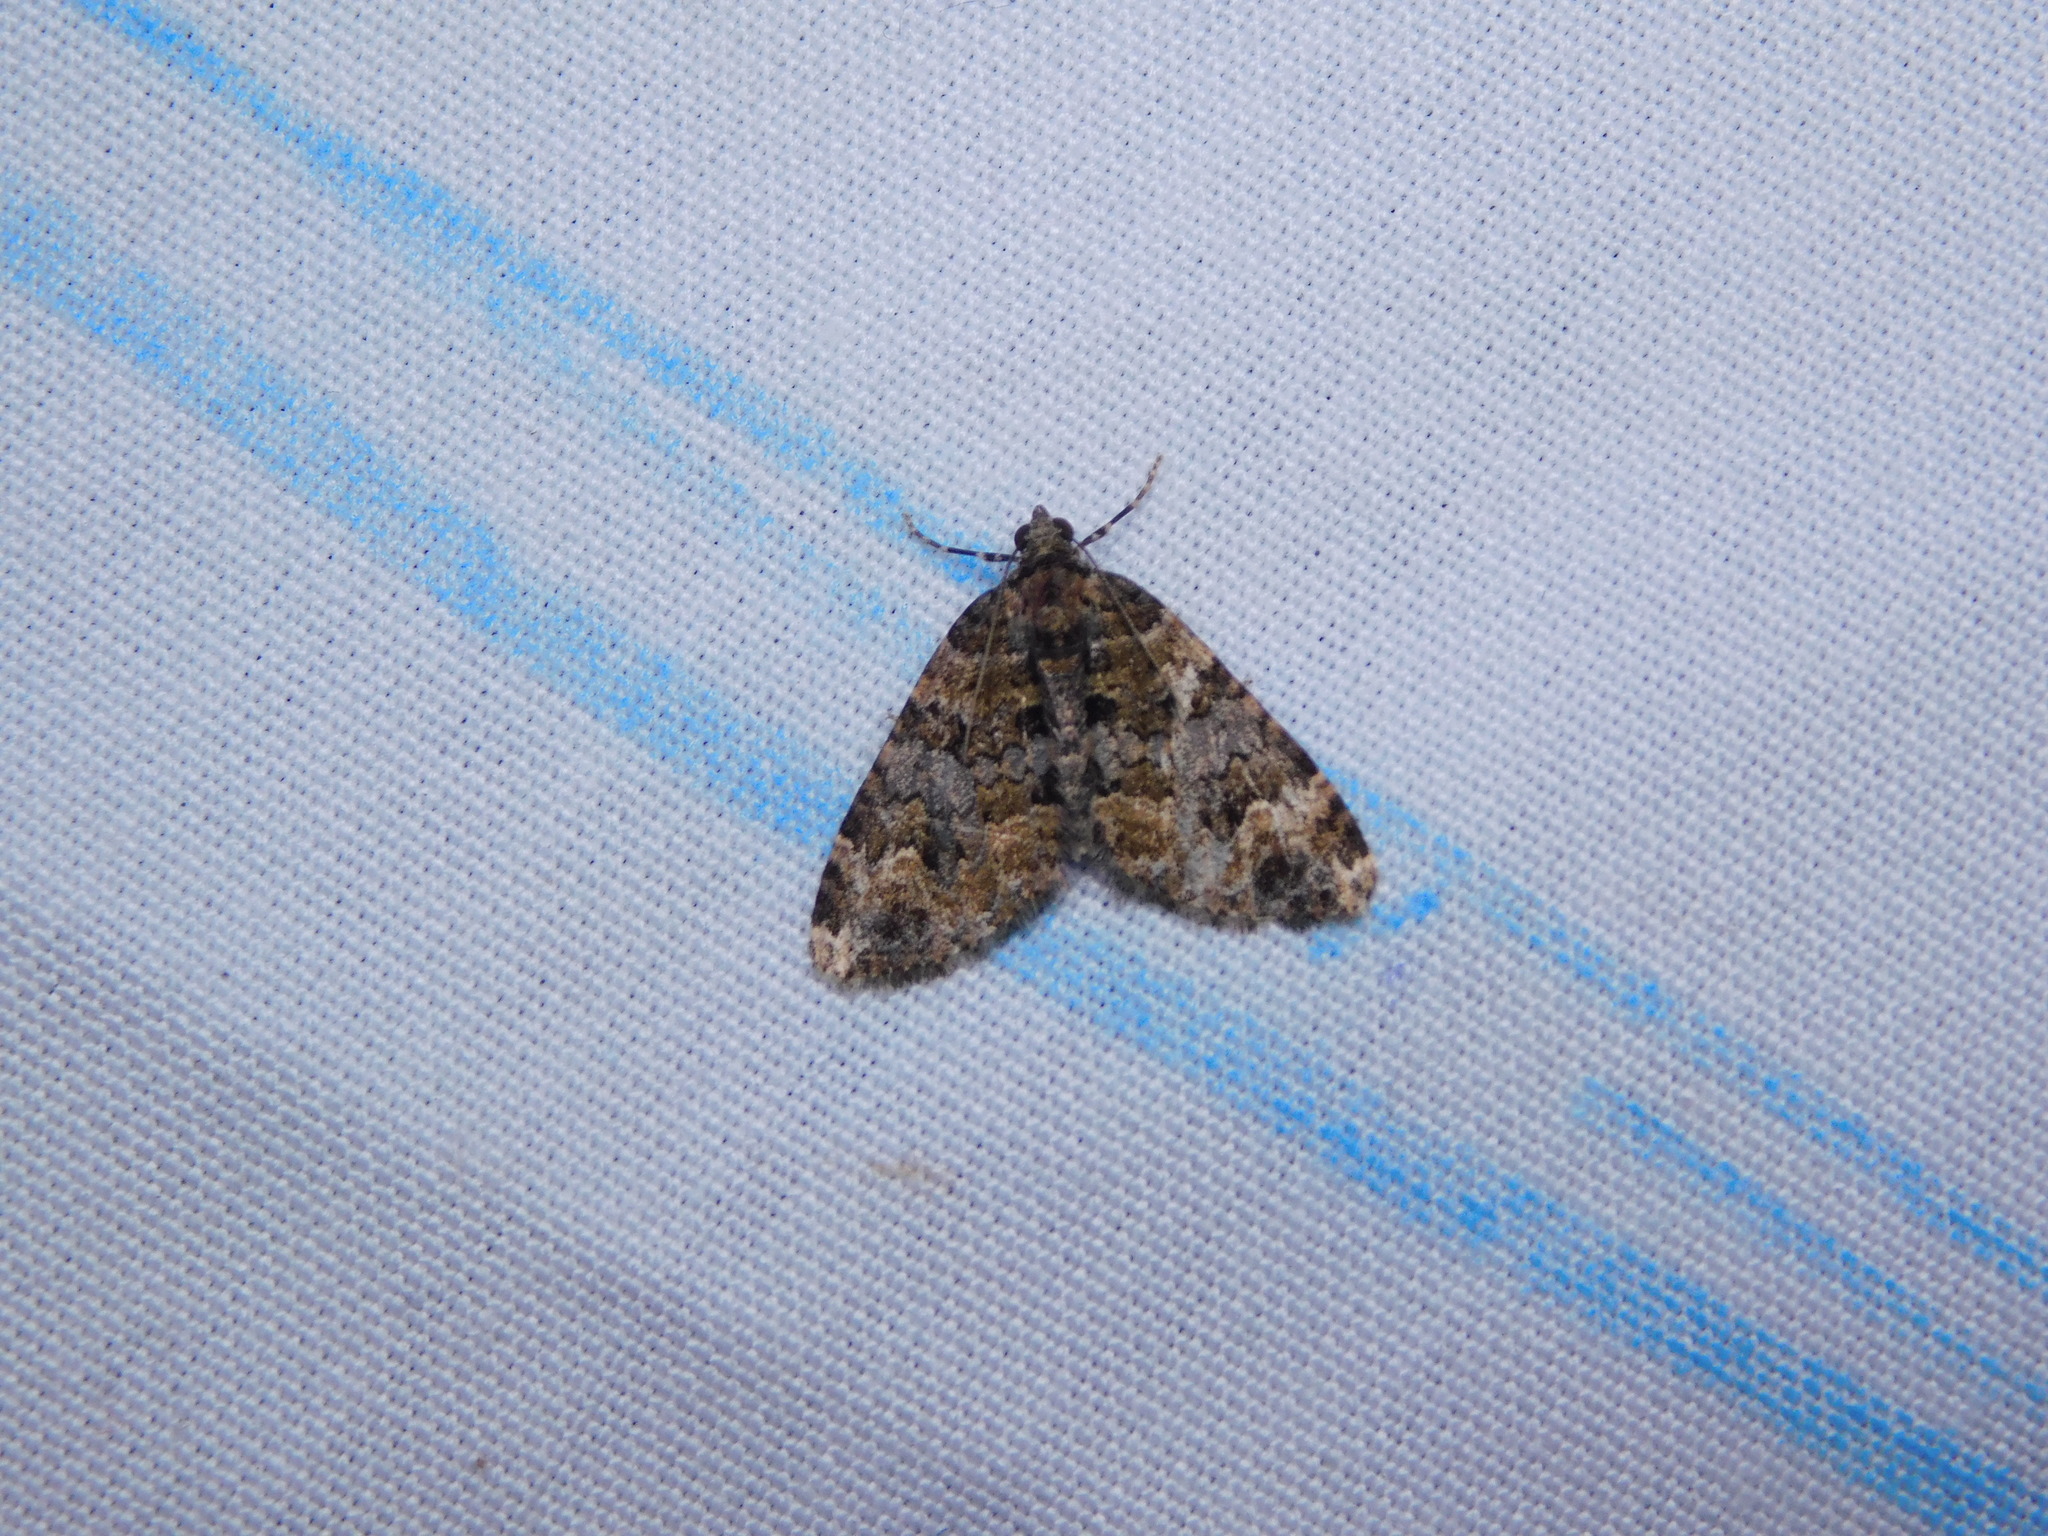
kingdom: Animalia
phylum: Arthropoda
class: Insecta
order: Lepidoptera
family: Geometridae
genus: Xanthorhoe
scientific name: Xanthorhoe fumipennis
